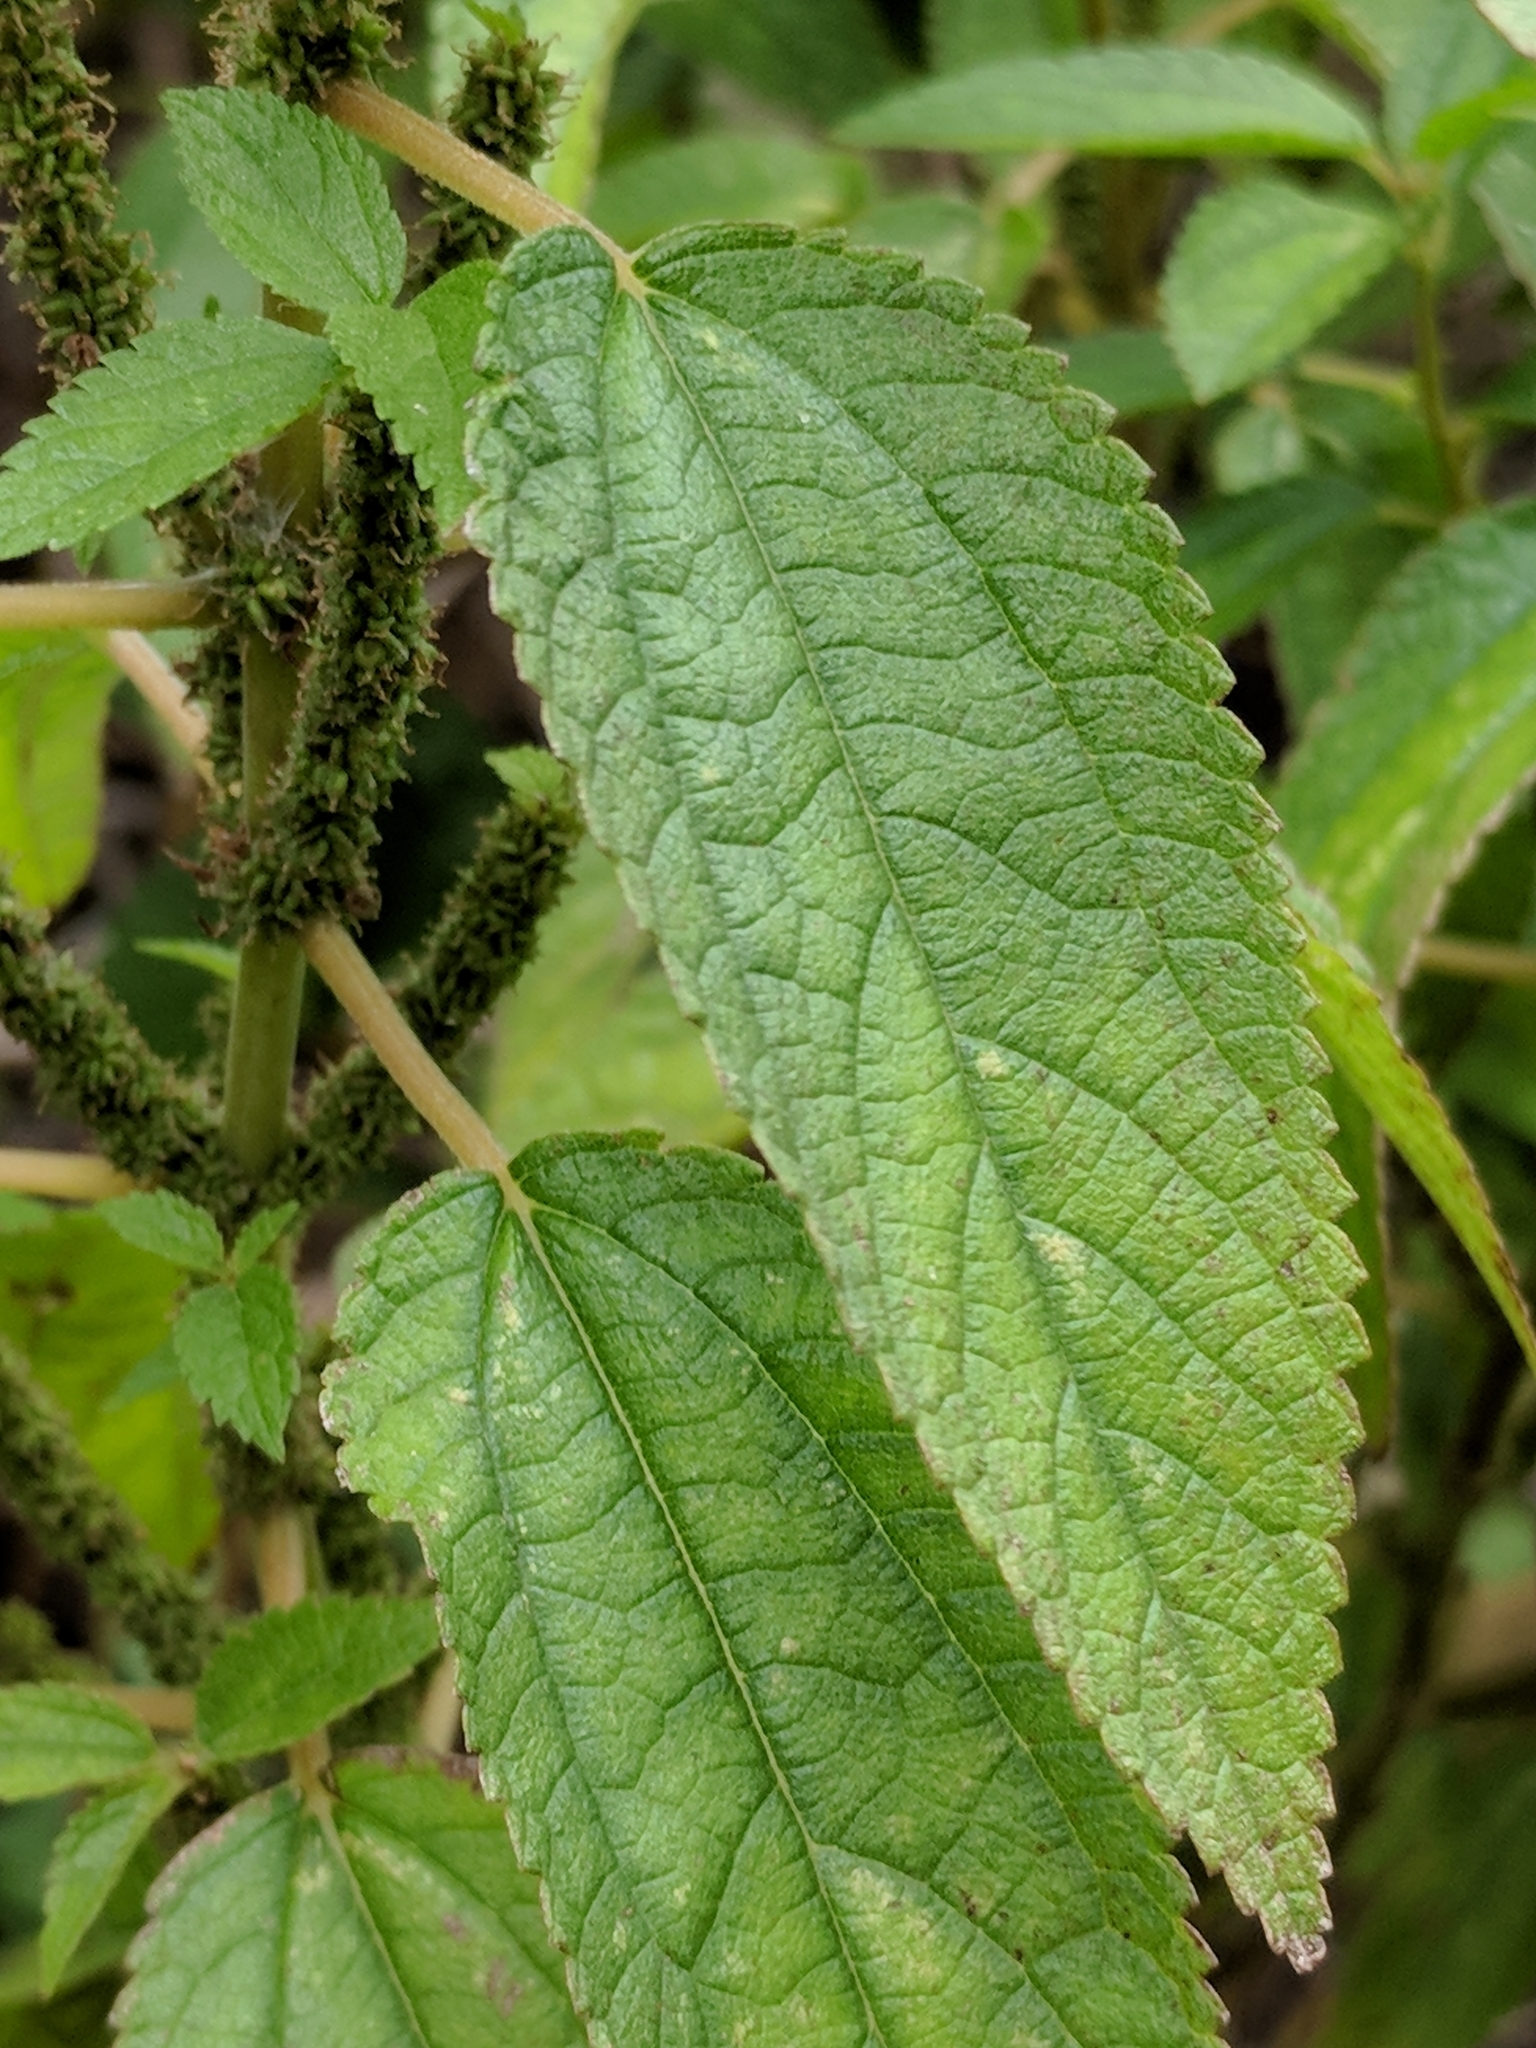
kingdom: Plantae
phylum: Tracheophyta
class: Magnoliopsida
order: Rosales
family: Urticaceae
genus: Boehmeria
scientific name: Boehmeria cylindrica
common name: Bog-hemp
